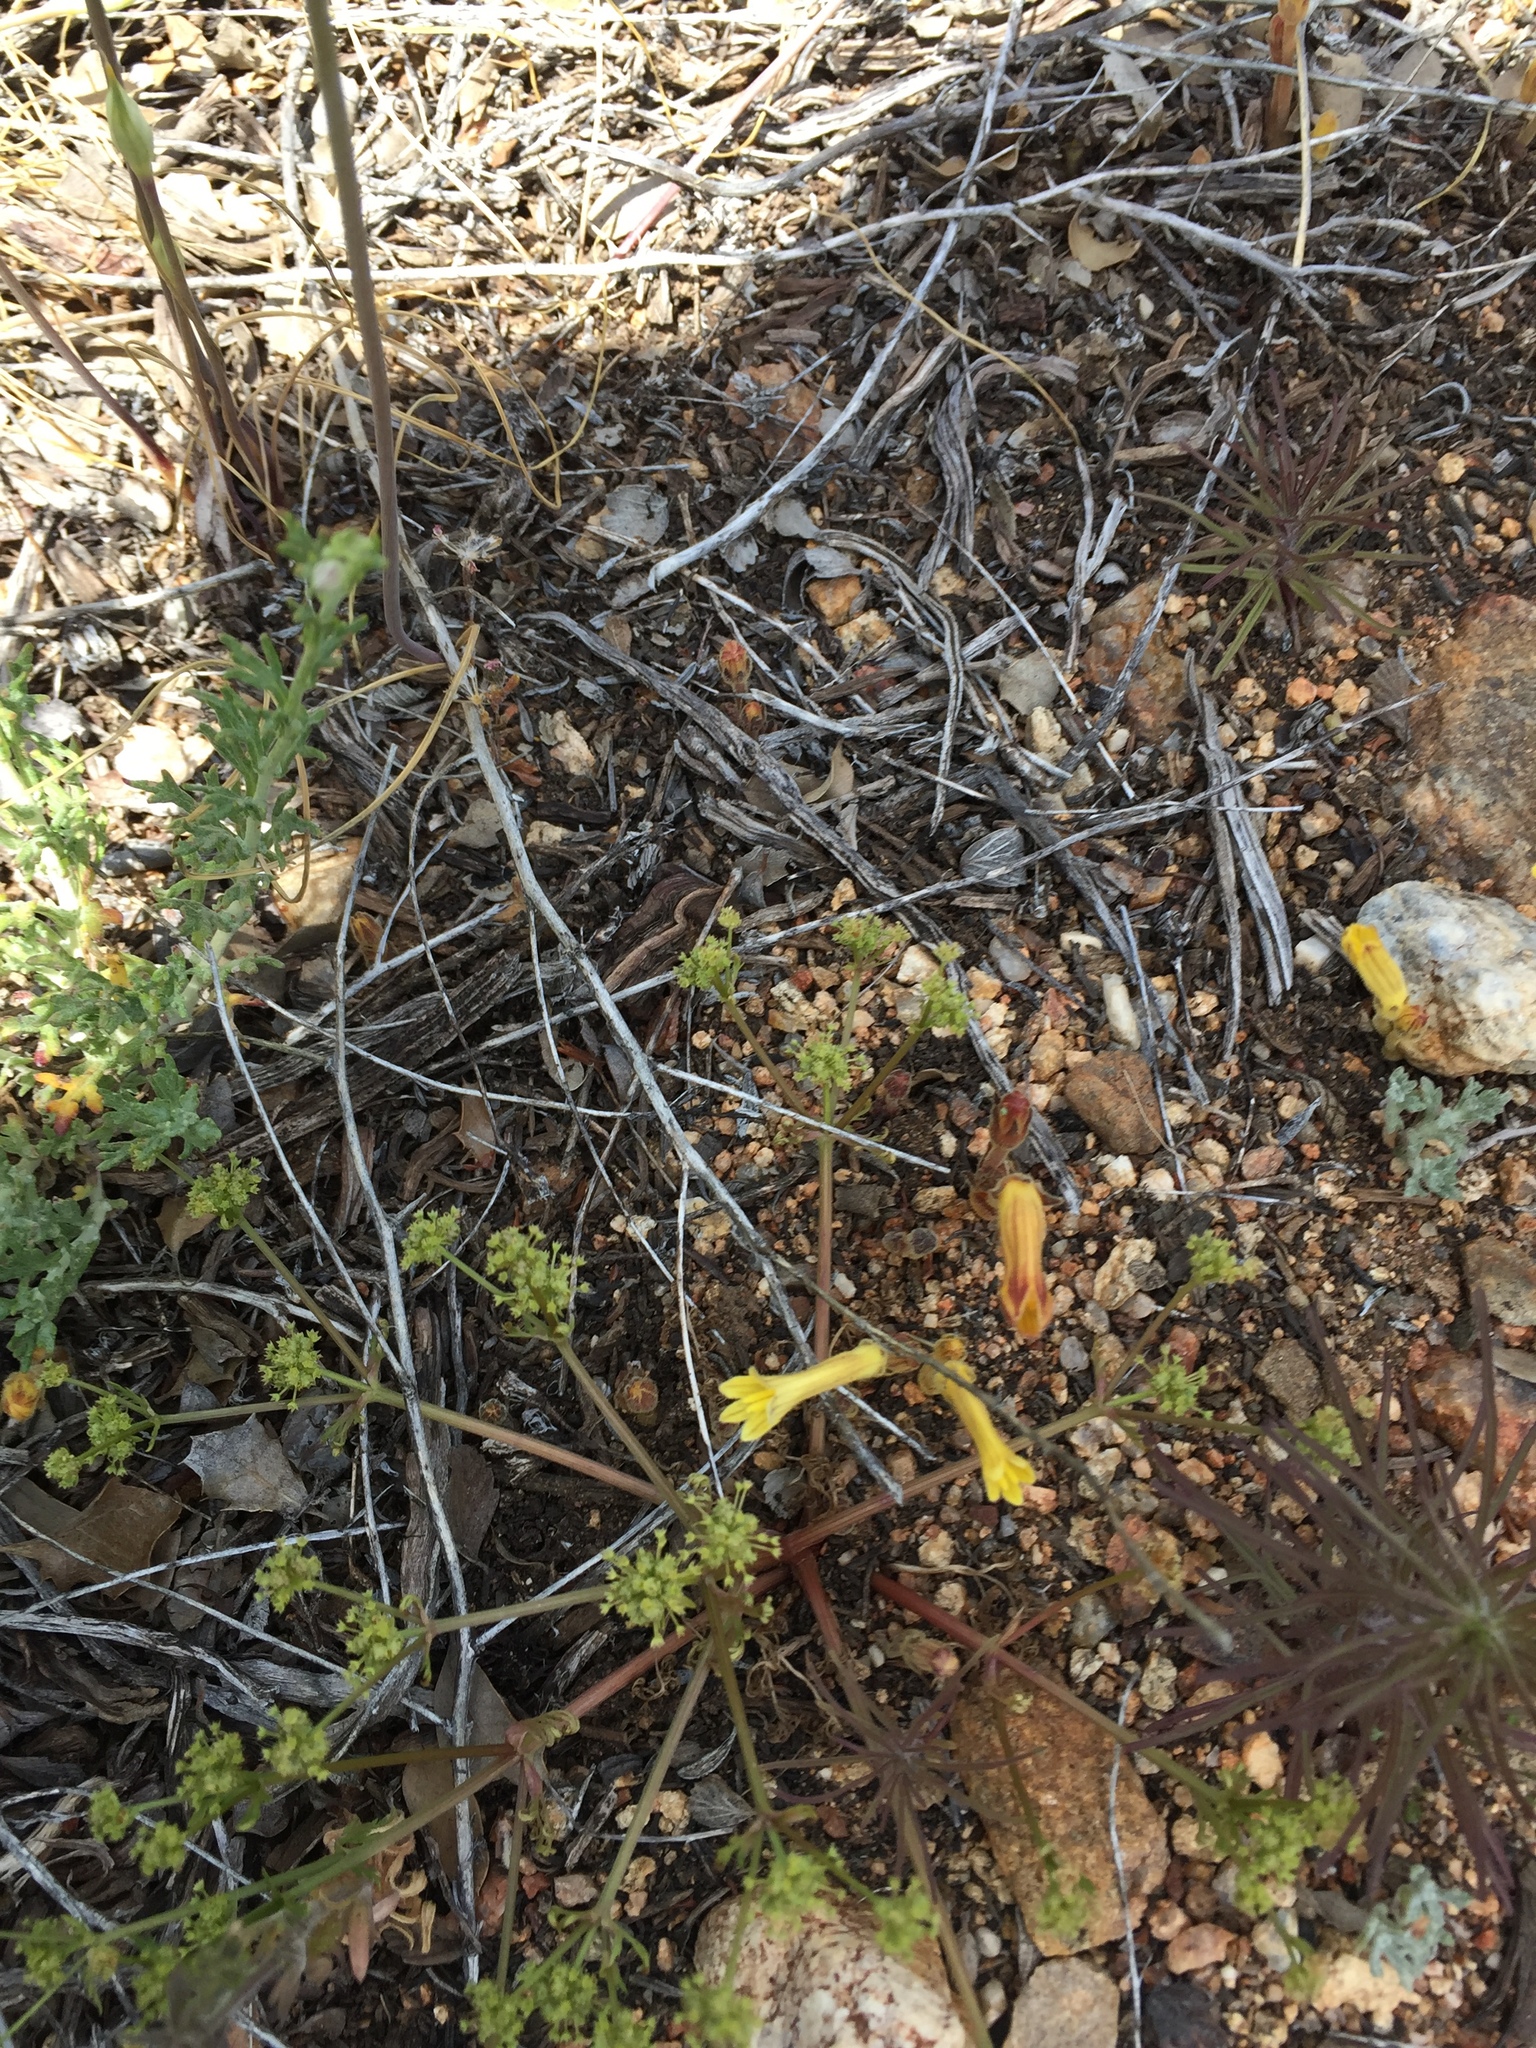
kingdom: Plantae
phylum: Tracheophyta
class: Magnoliopsida
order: Lamiales
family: Orobanchaceae
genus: Aphyllon
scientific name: Aphyllon franciscanum
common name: San francisco broomrape
